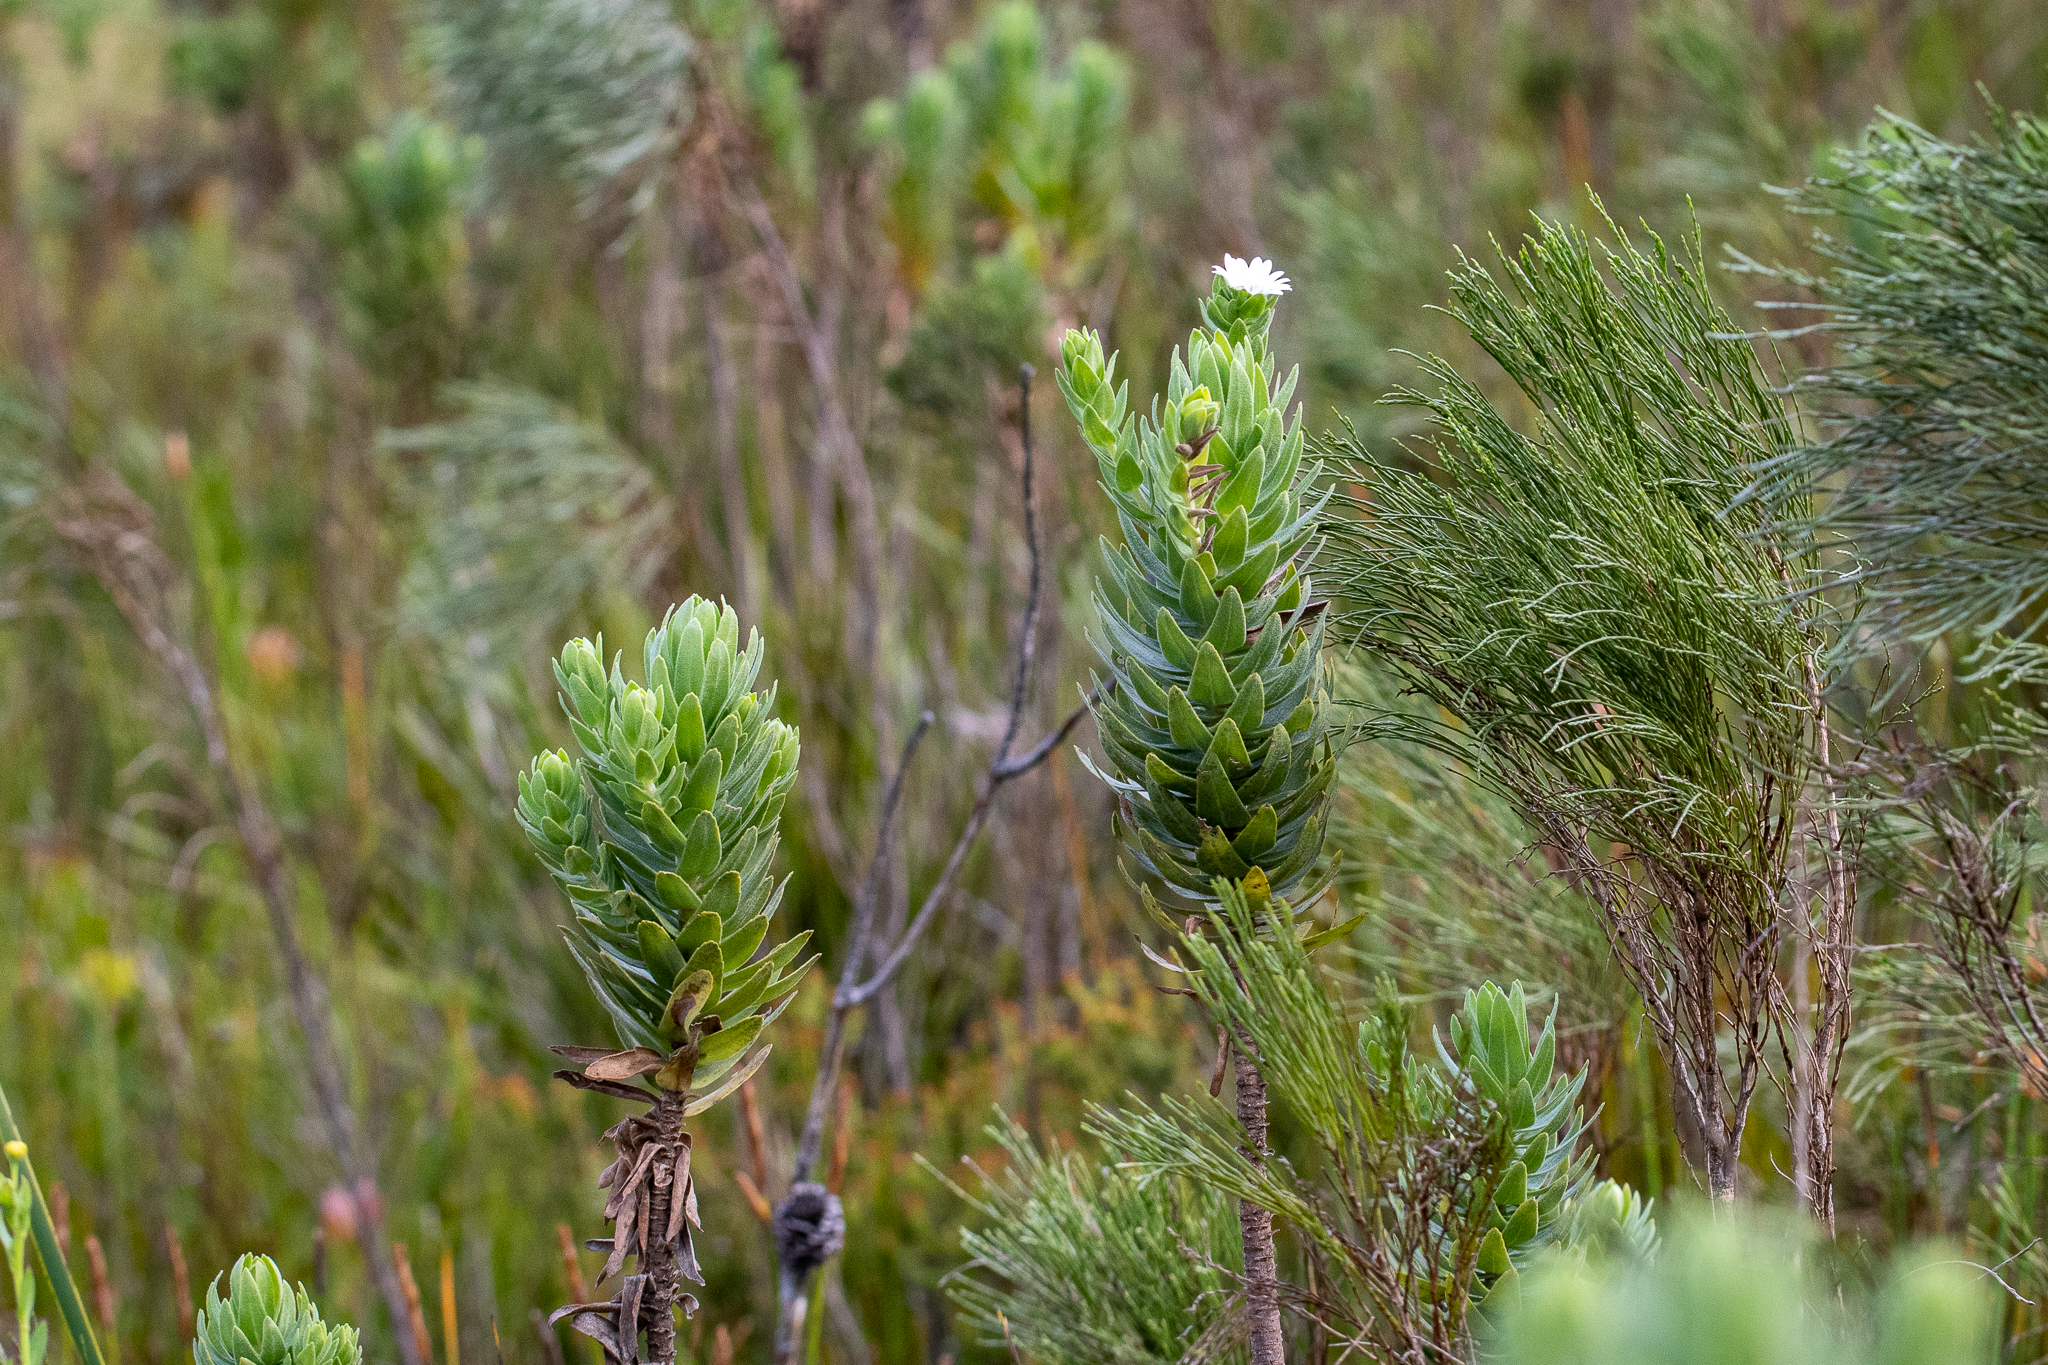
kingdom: Plantae
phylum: Tracheophyta
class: Magnoliopsida
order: Asterales
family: Asteraceae
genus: Osmitopsis
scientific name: Osmitopsis asteriscoides
